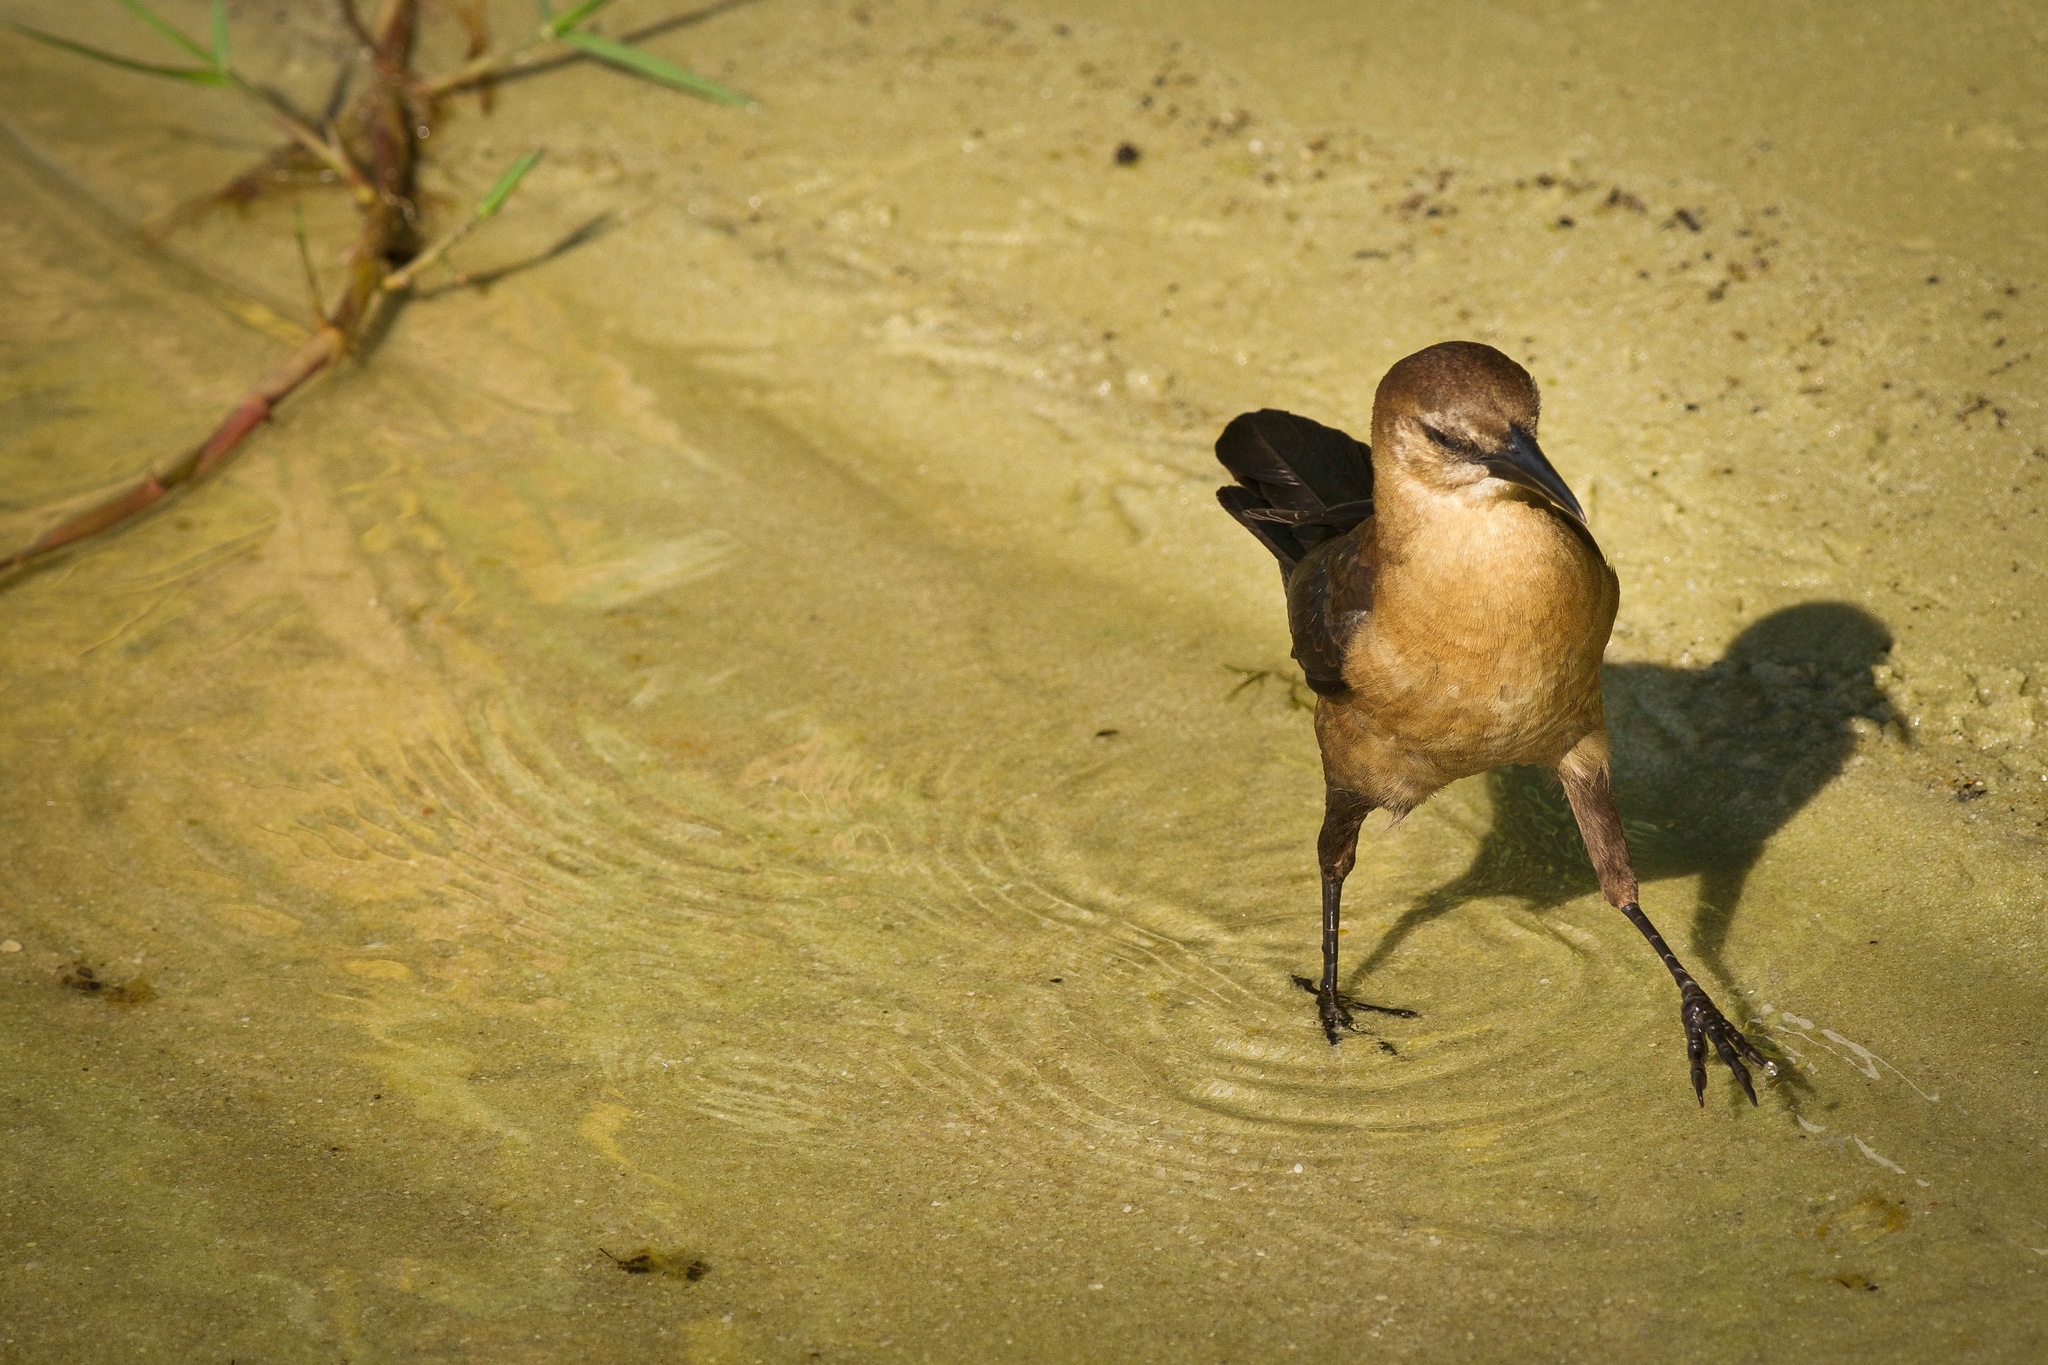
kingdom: Animalia
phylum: Chordata
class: Aves
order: Passeriformes
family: Icteridae
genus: Quiscalus
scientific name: Quiscalus major
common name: Boat-tailed grackle
